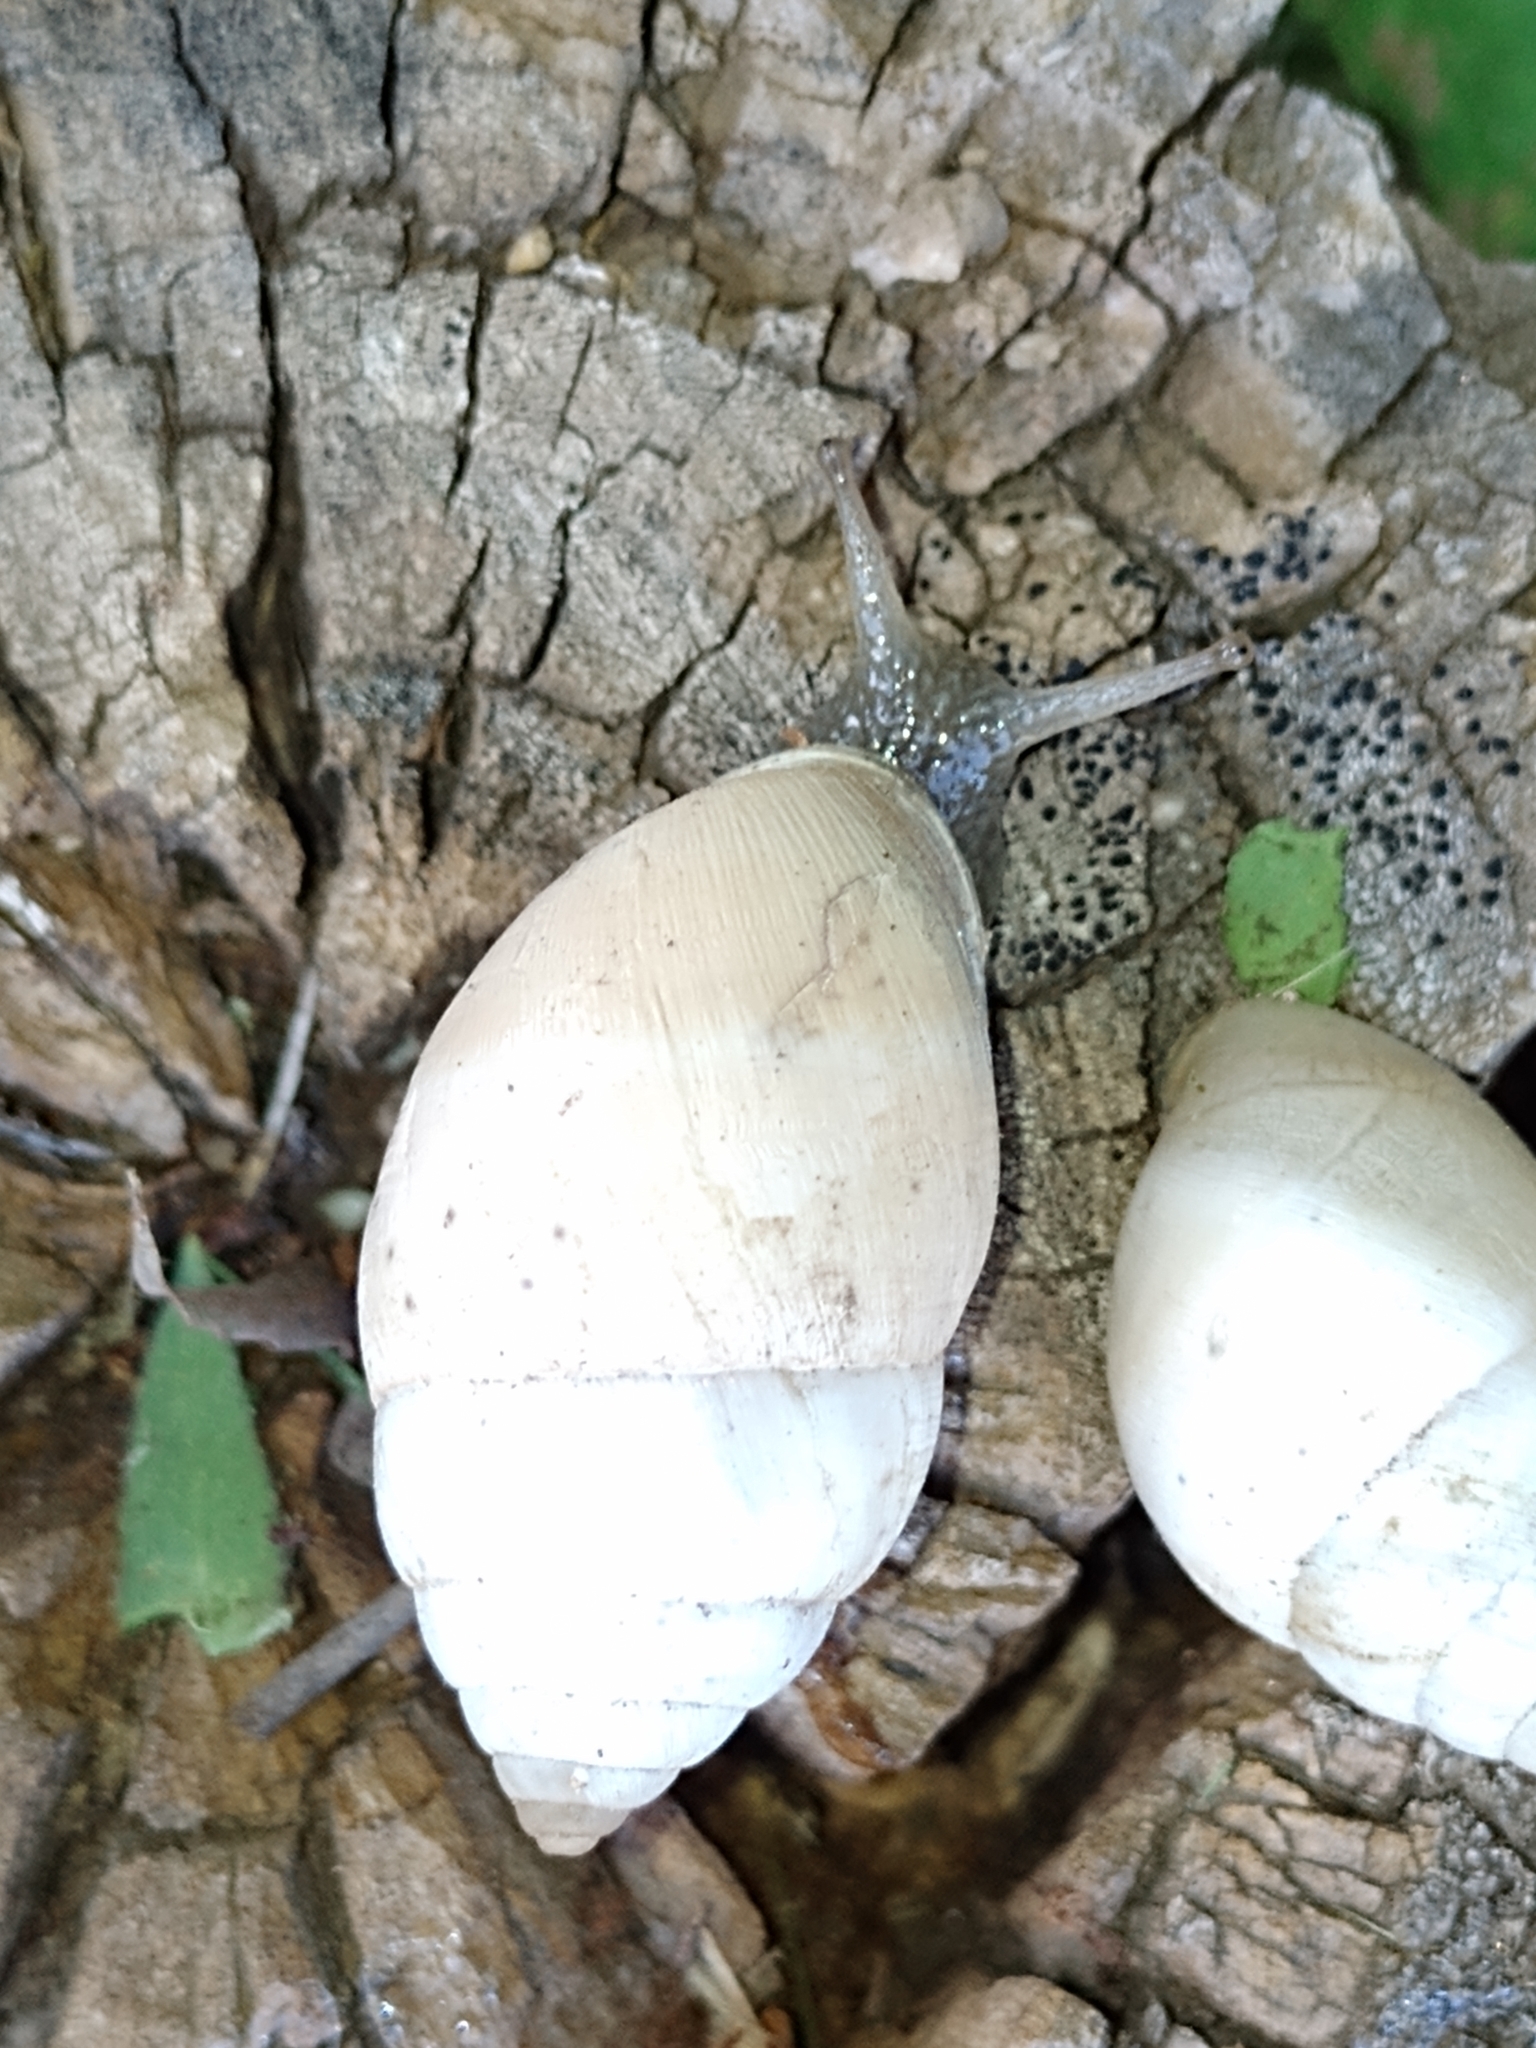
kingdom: Animalia
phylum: Mollusca
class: Gastropoda
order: Stylommatophora
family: Odontostomidae
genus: Plagiodontes
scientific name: Plagiodontes daedaleus
